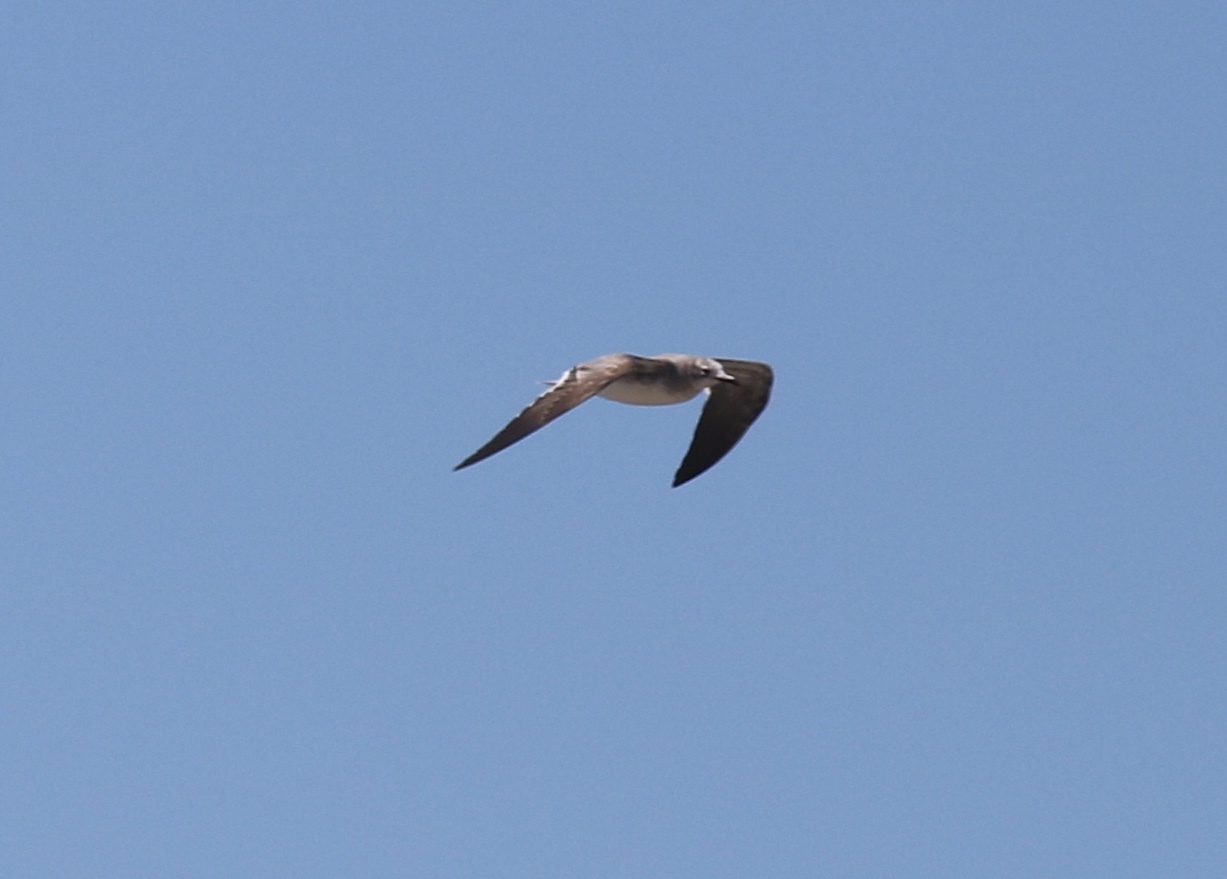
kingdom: Animalia
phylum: Chordata
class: Aves
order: Charadriiformes
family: Laridae
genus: Leucophaeus
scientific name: Leucophaeus atricilla
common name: Laughing gull
